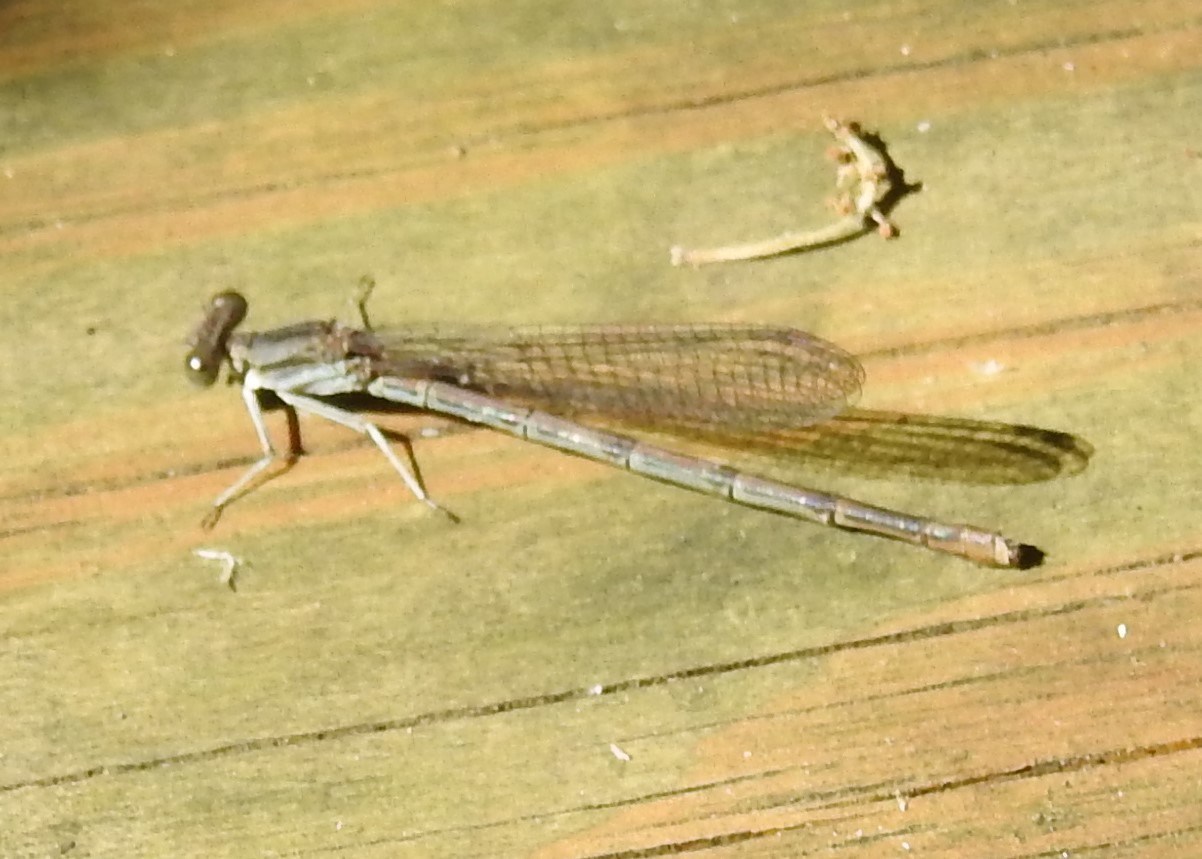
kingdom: Animalia
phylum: Arthropoda
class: Insecta
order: Odonata
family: Coenagrionidae
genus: Argia
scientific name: Argia fumipennis
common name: Variable dancer
